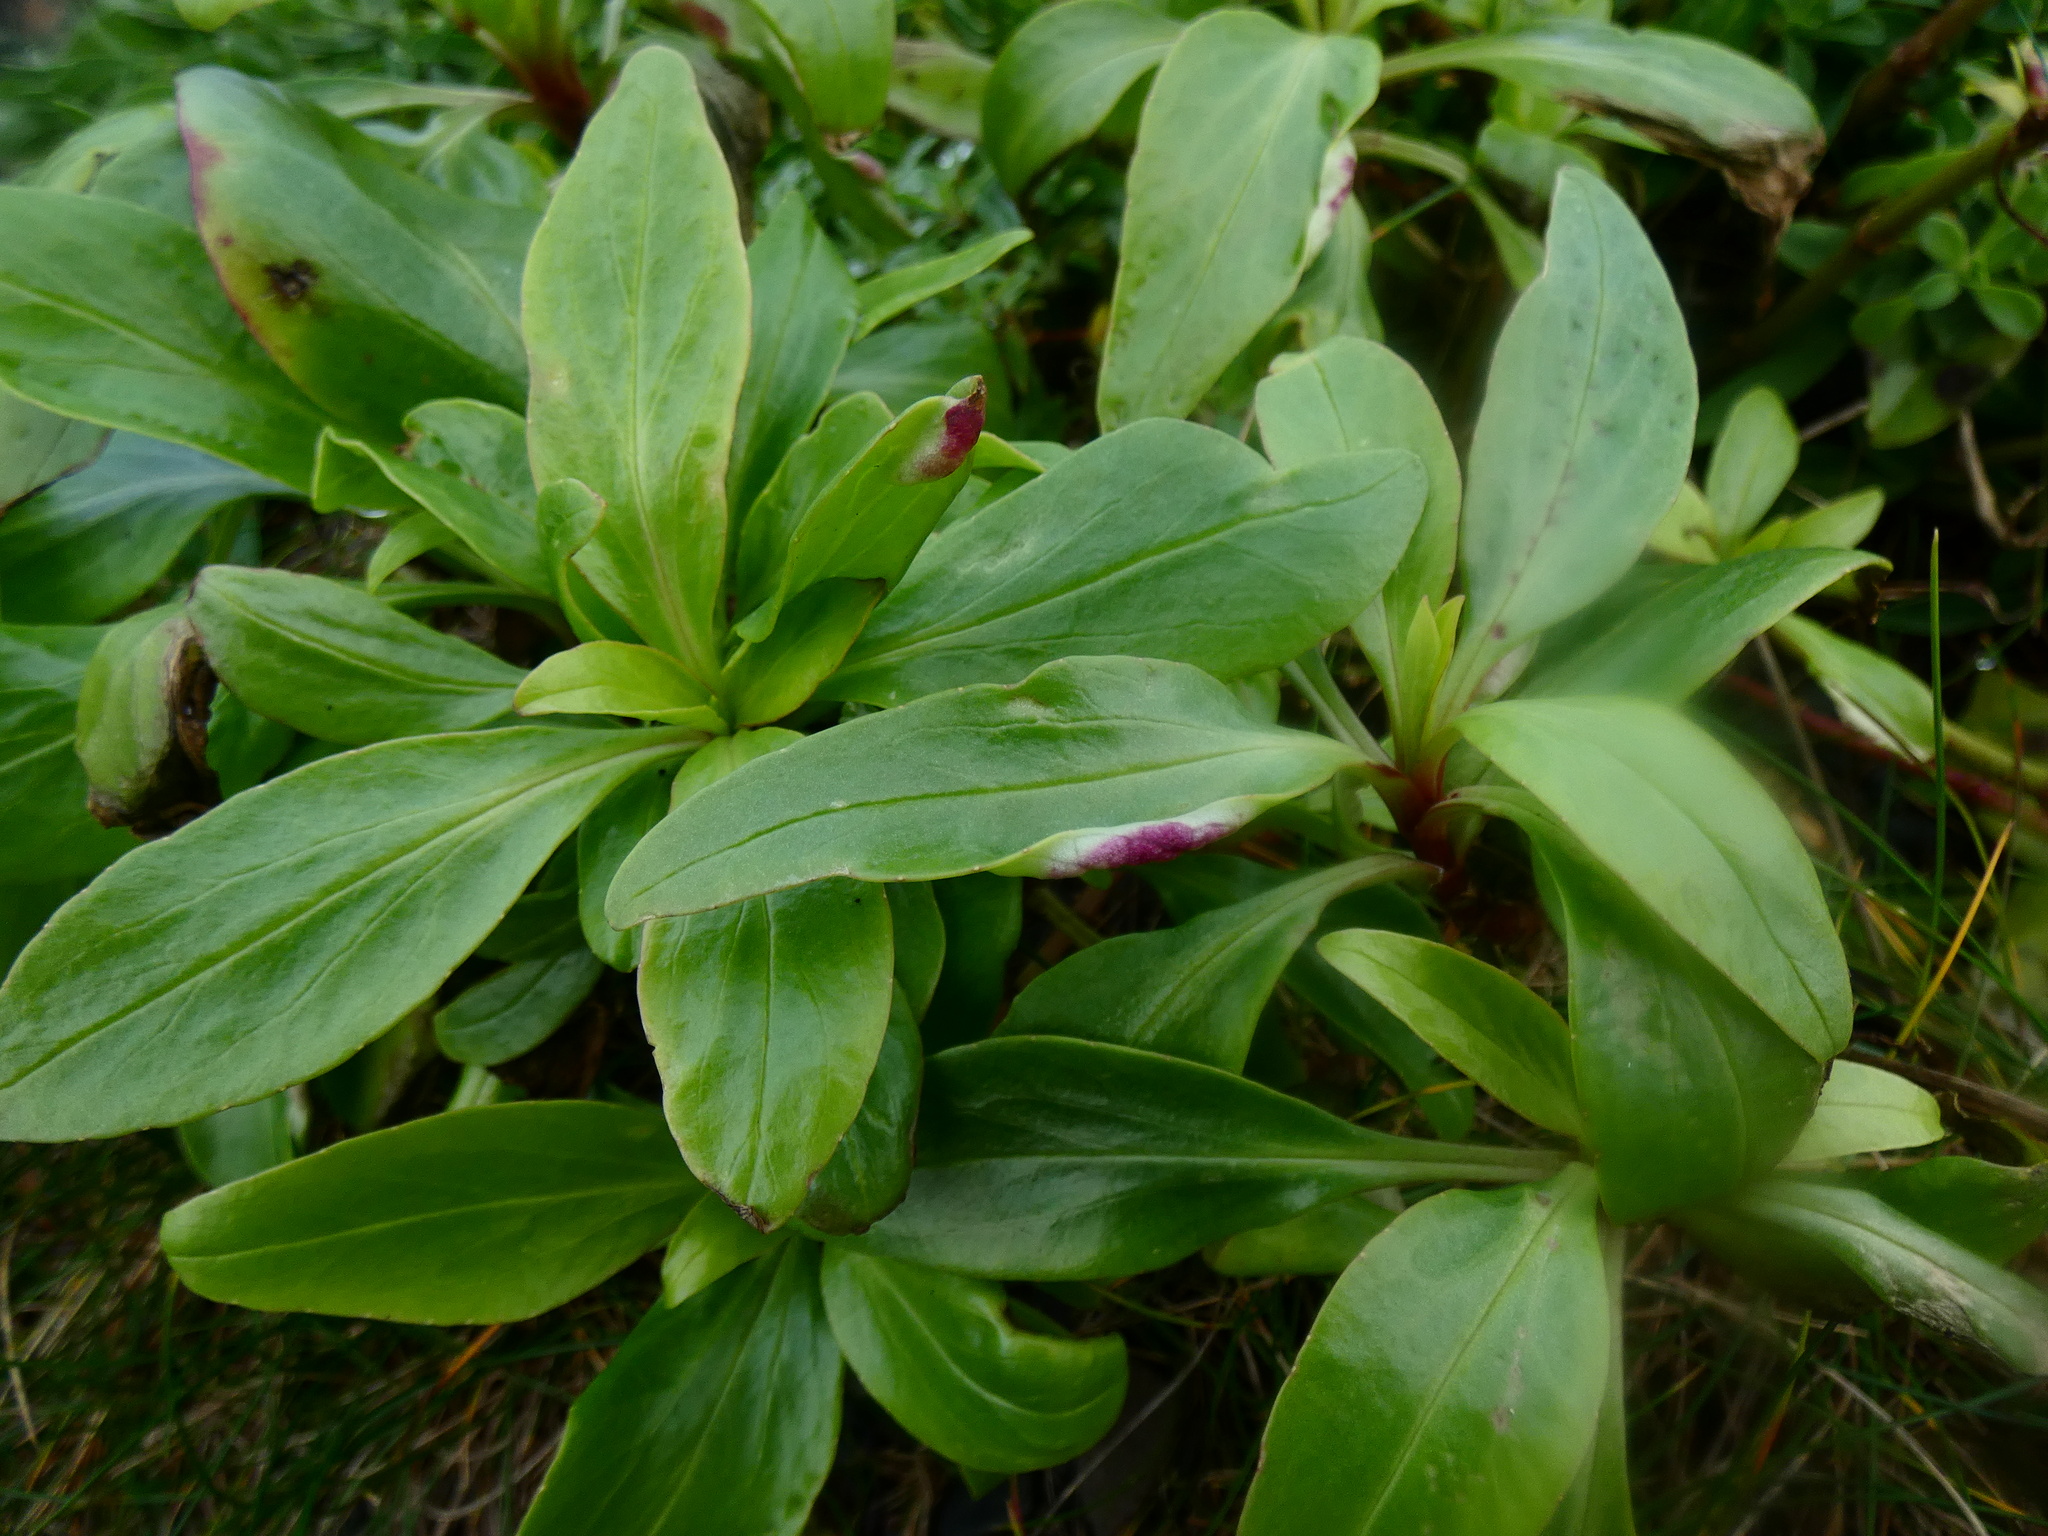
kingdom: Animalia
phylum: Arthropoda
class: Insecta
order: Hemiptera
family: Triozidae
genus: Trioza
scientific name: Trioza centranthi
